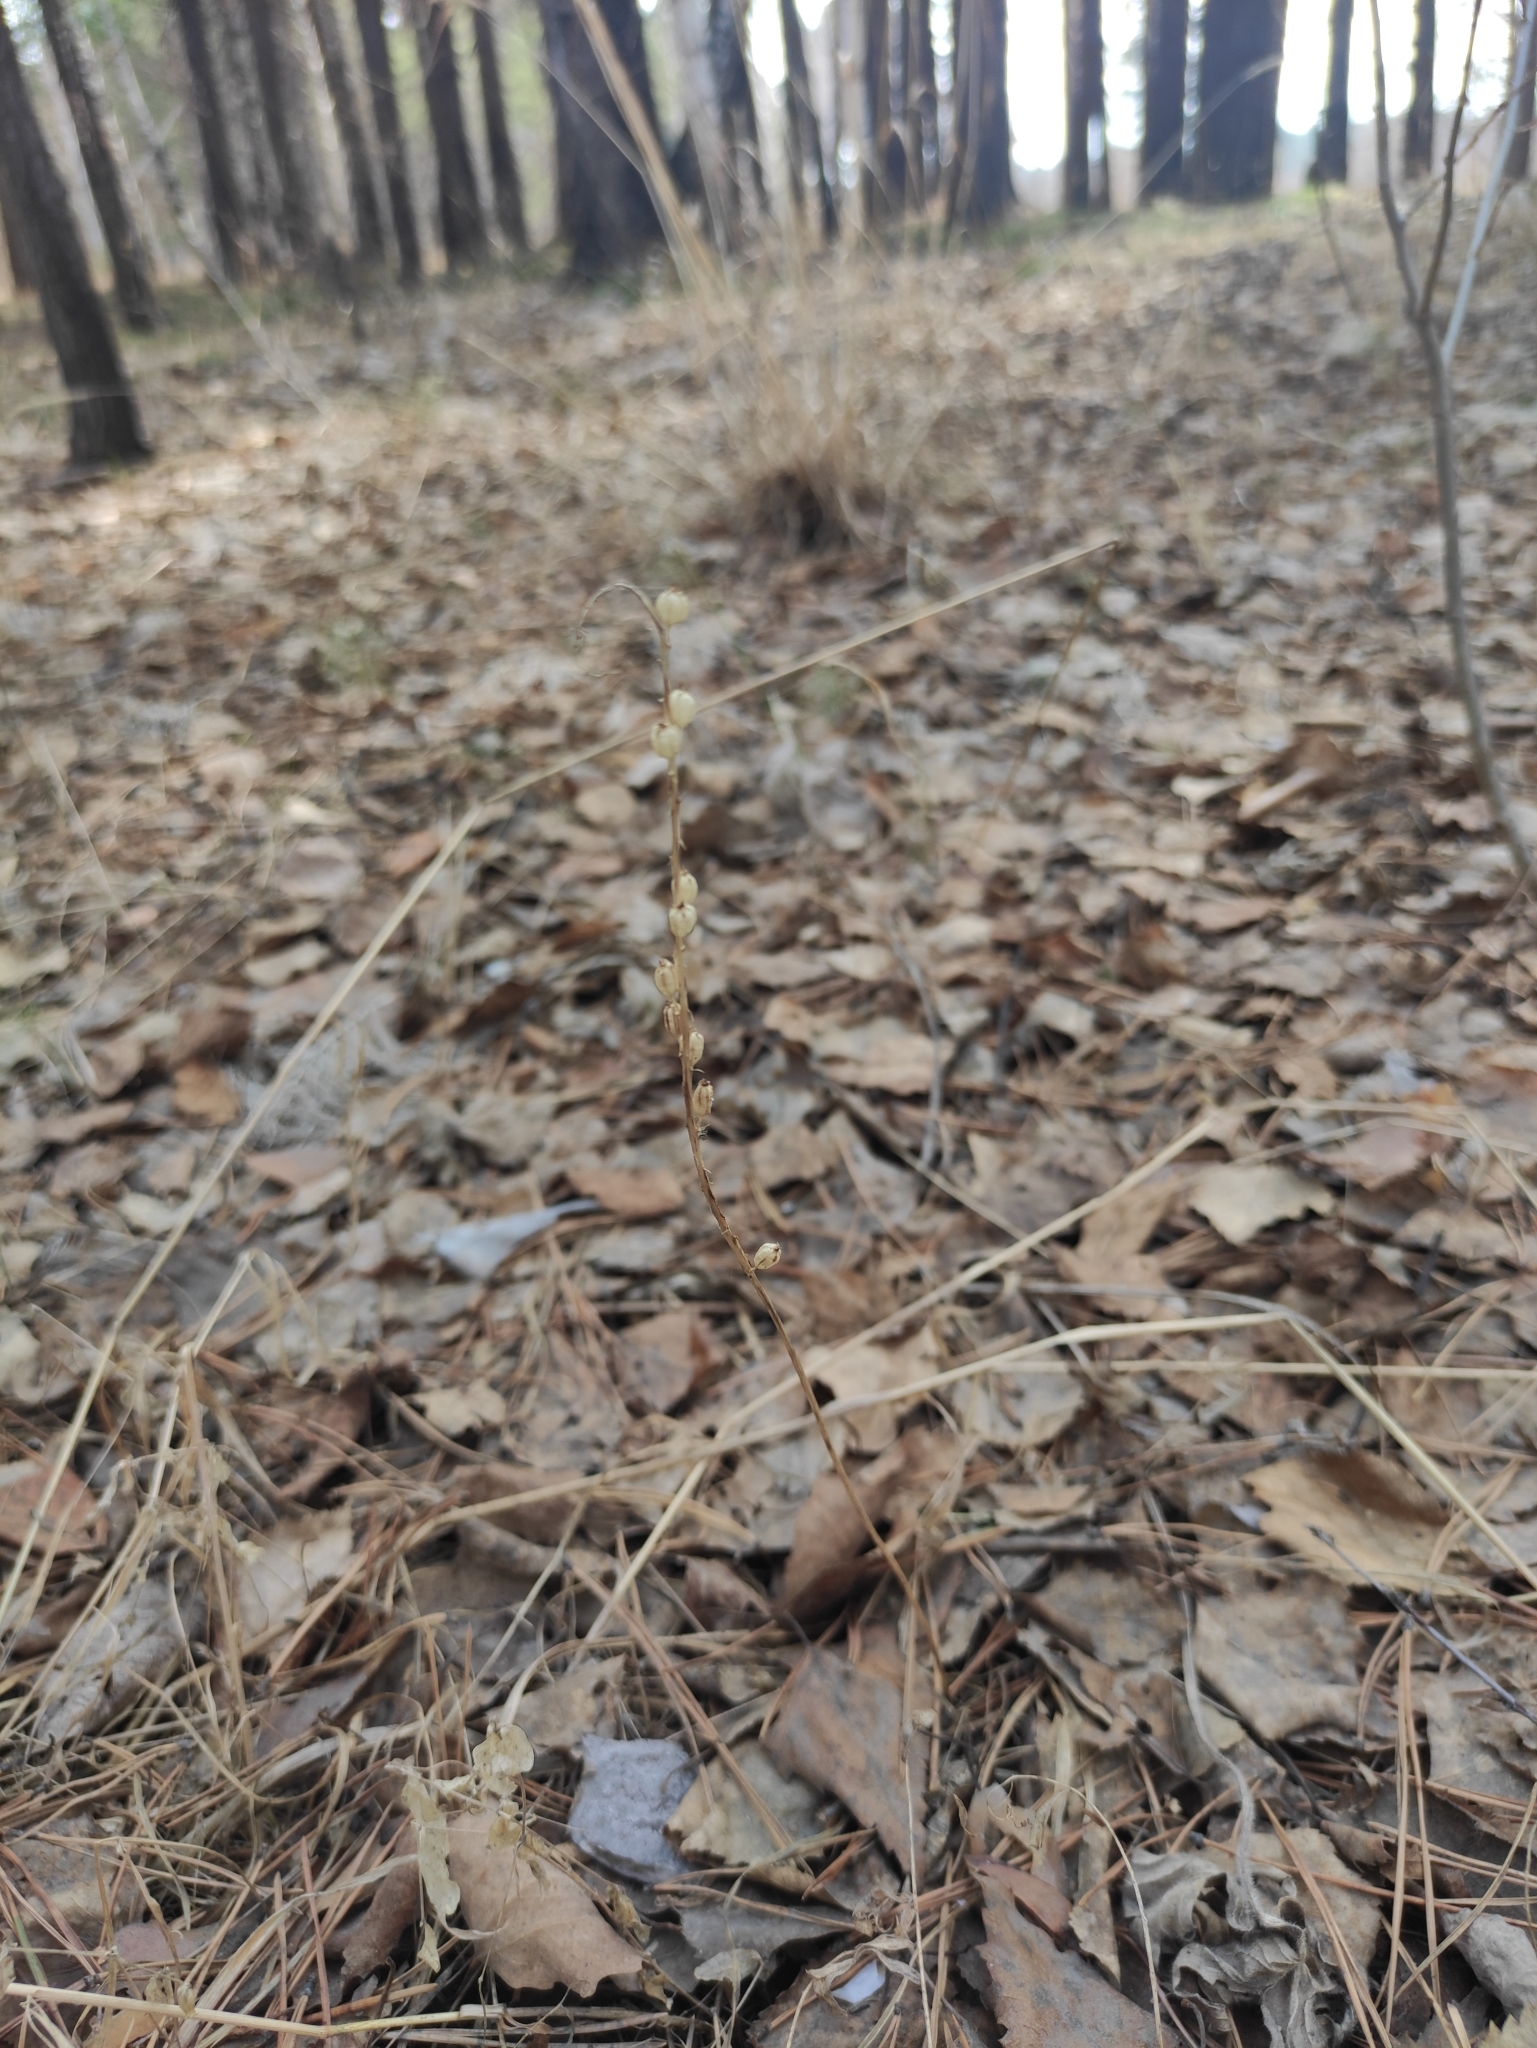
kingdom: Plantae
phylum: Tracheophyta
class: Liliopsida
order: Asparagales
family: Orchidaceae
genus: Malaxis
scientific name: Malaxis monophyllos
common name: White adder's-mouth
